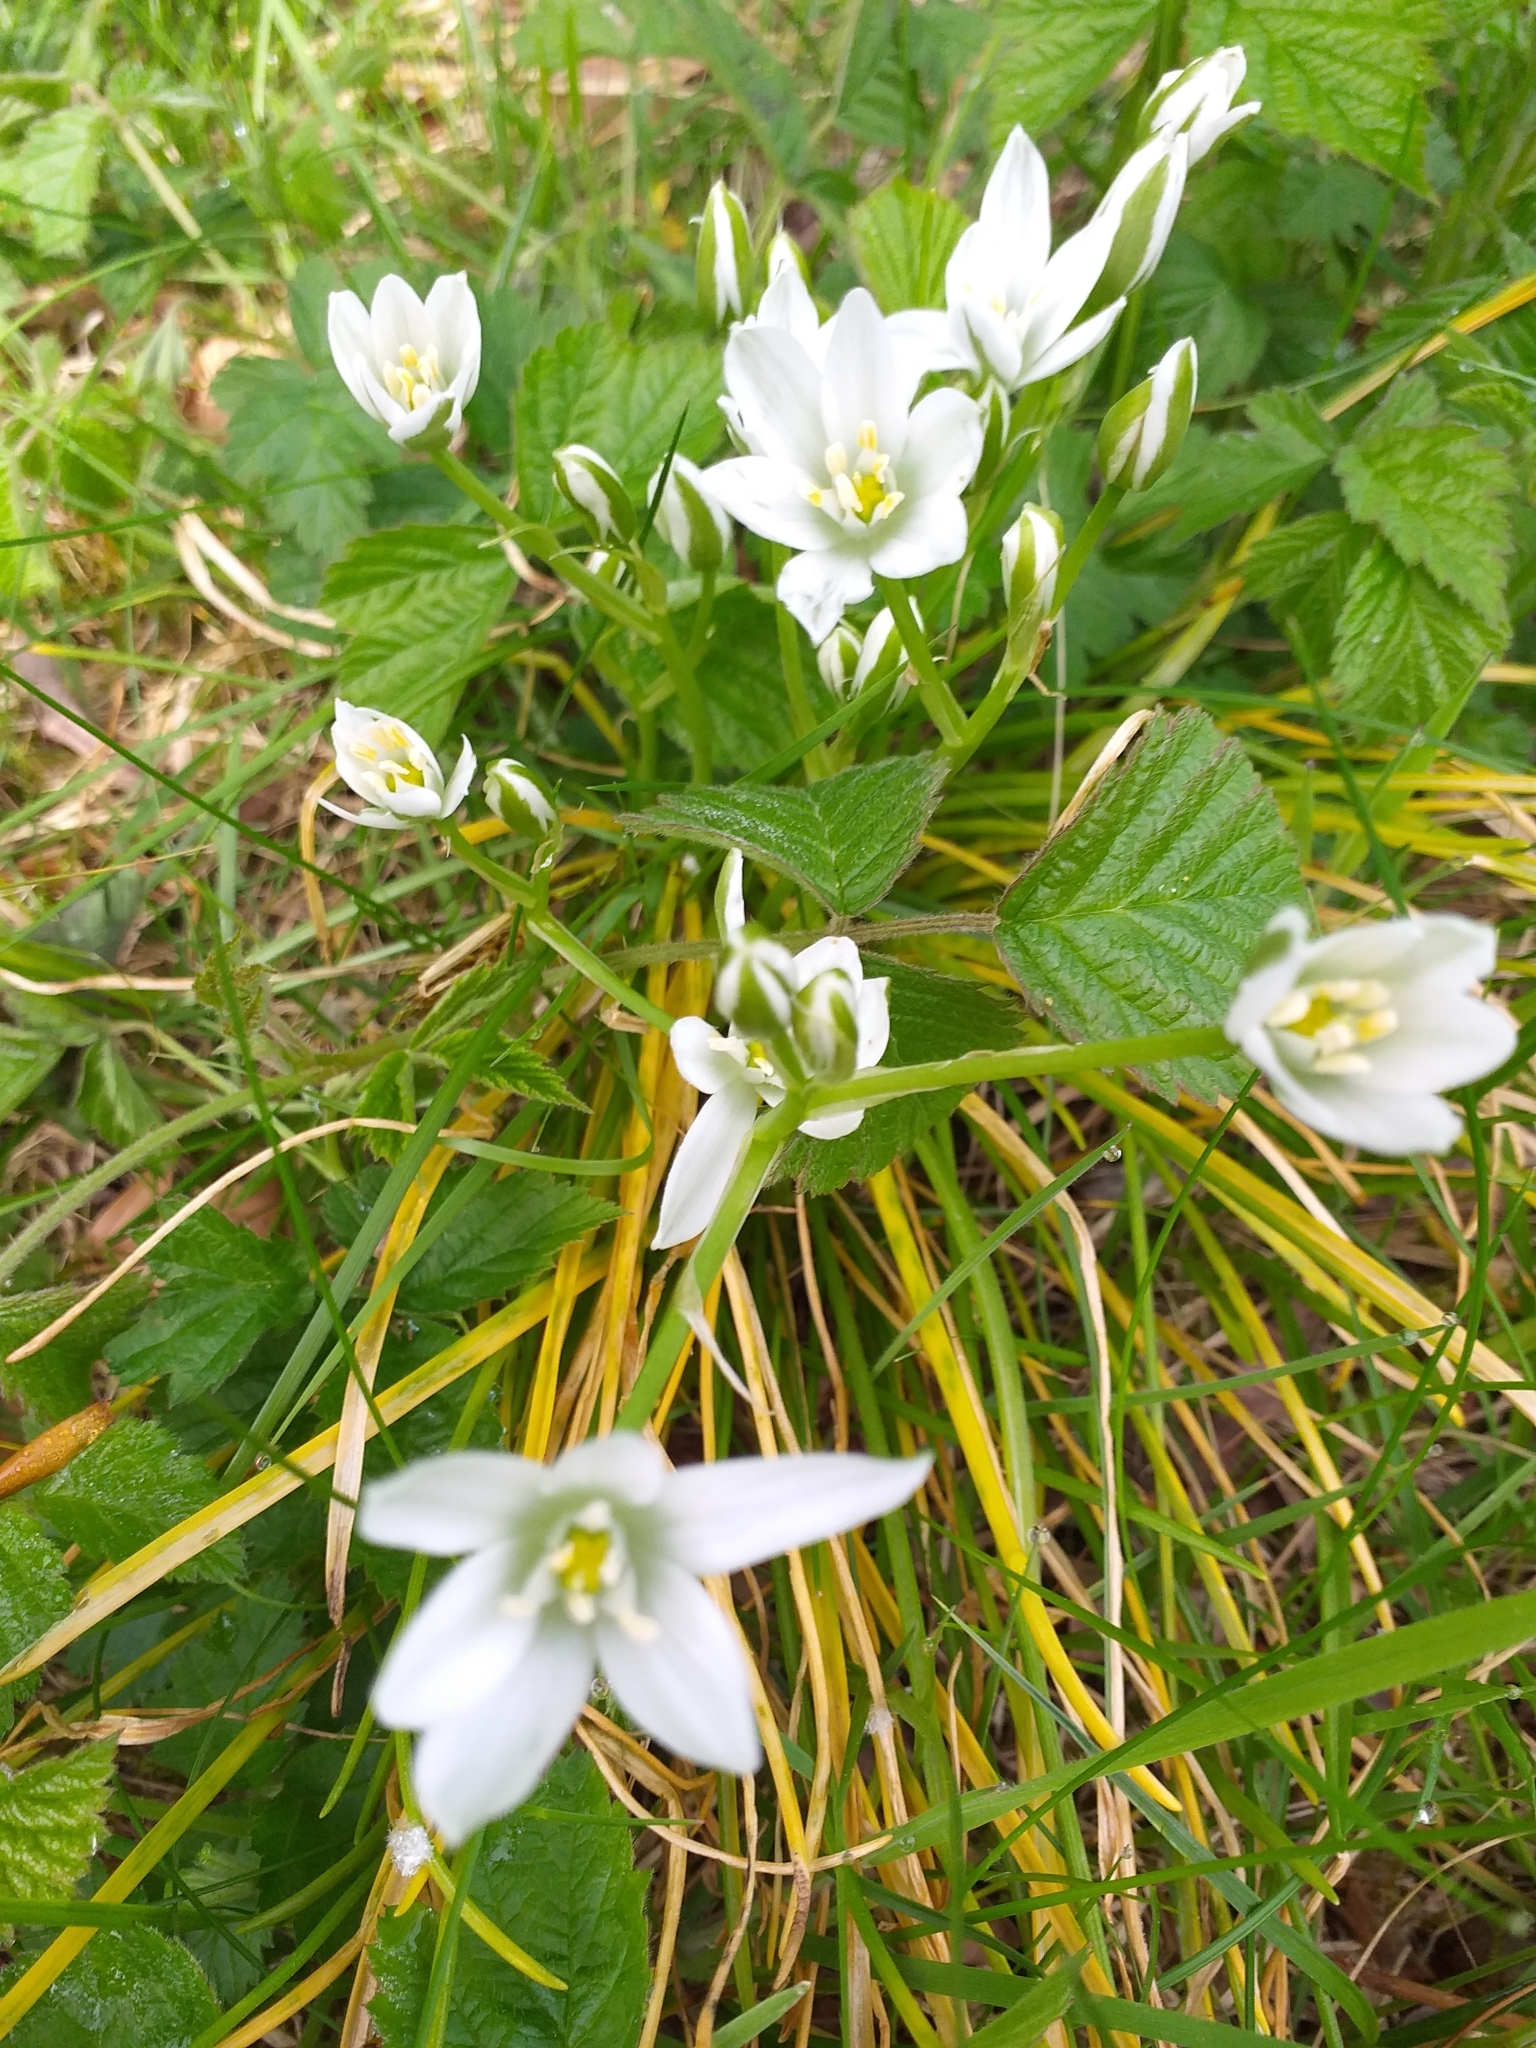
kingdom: Plantae
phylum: Tracheophyta
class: Liliopsida
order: Asparagales
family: Asparagaceae
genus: Ornithogalum
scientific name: Ornithogalum umbellatum
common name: Garden star-of-bethlehem
